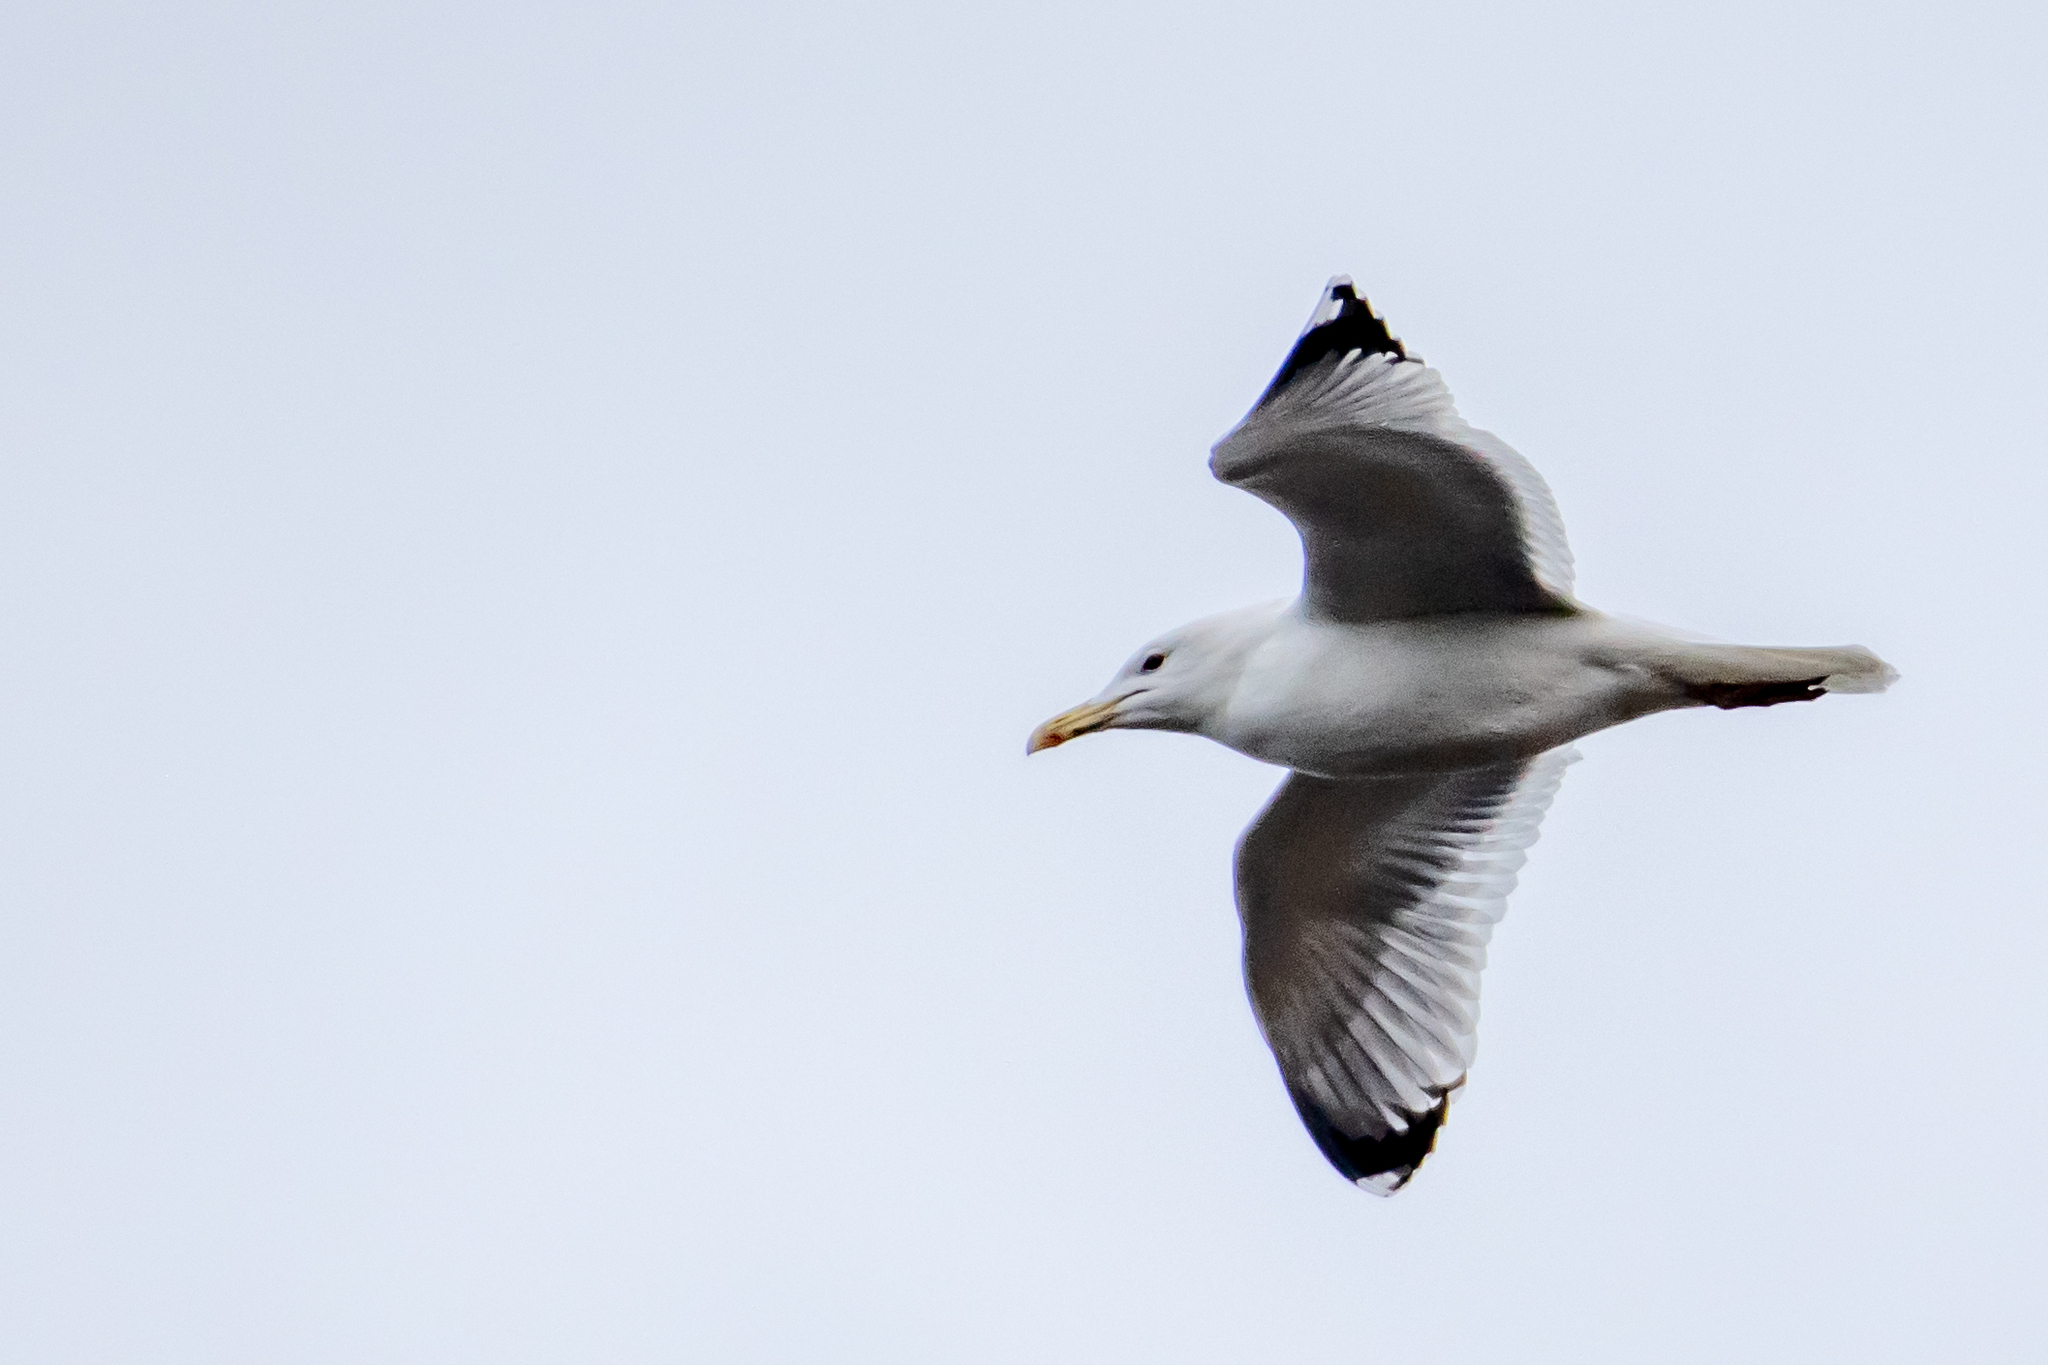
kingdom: Animalia
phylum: Chordata
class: Aves
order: Charadriiformes
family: Laridae
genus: Larus
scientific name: Larus cachinnans
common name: Caspian gull
